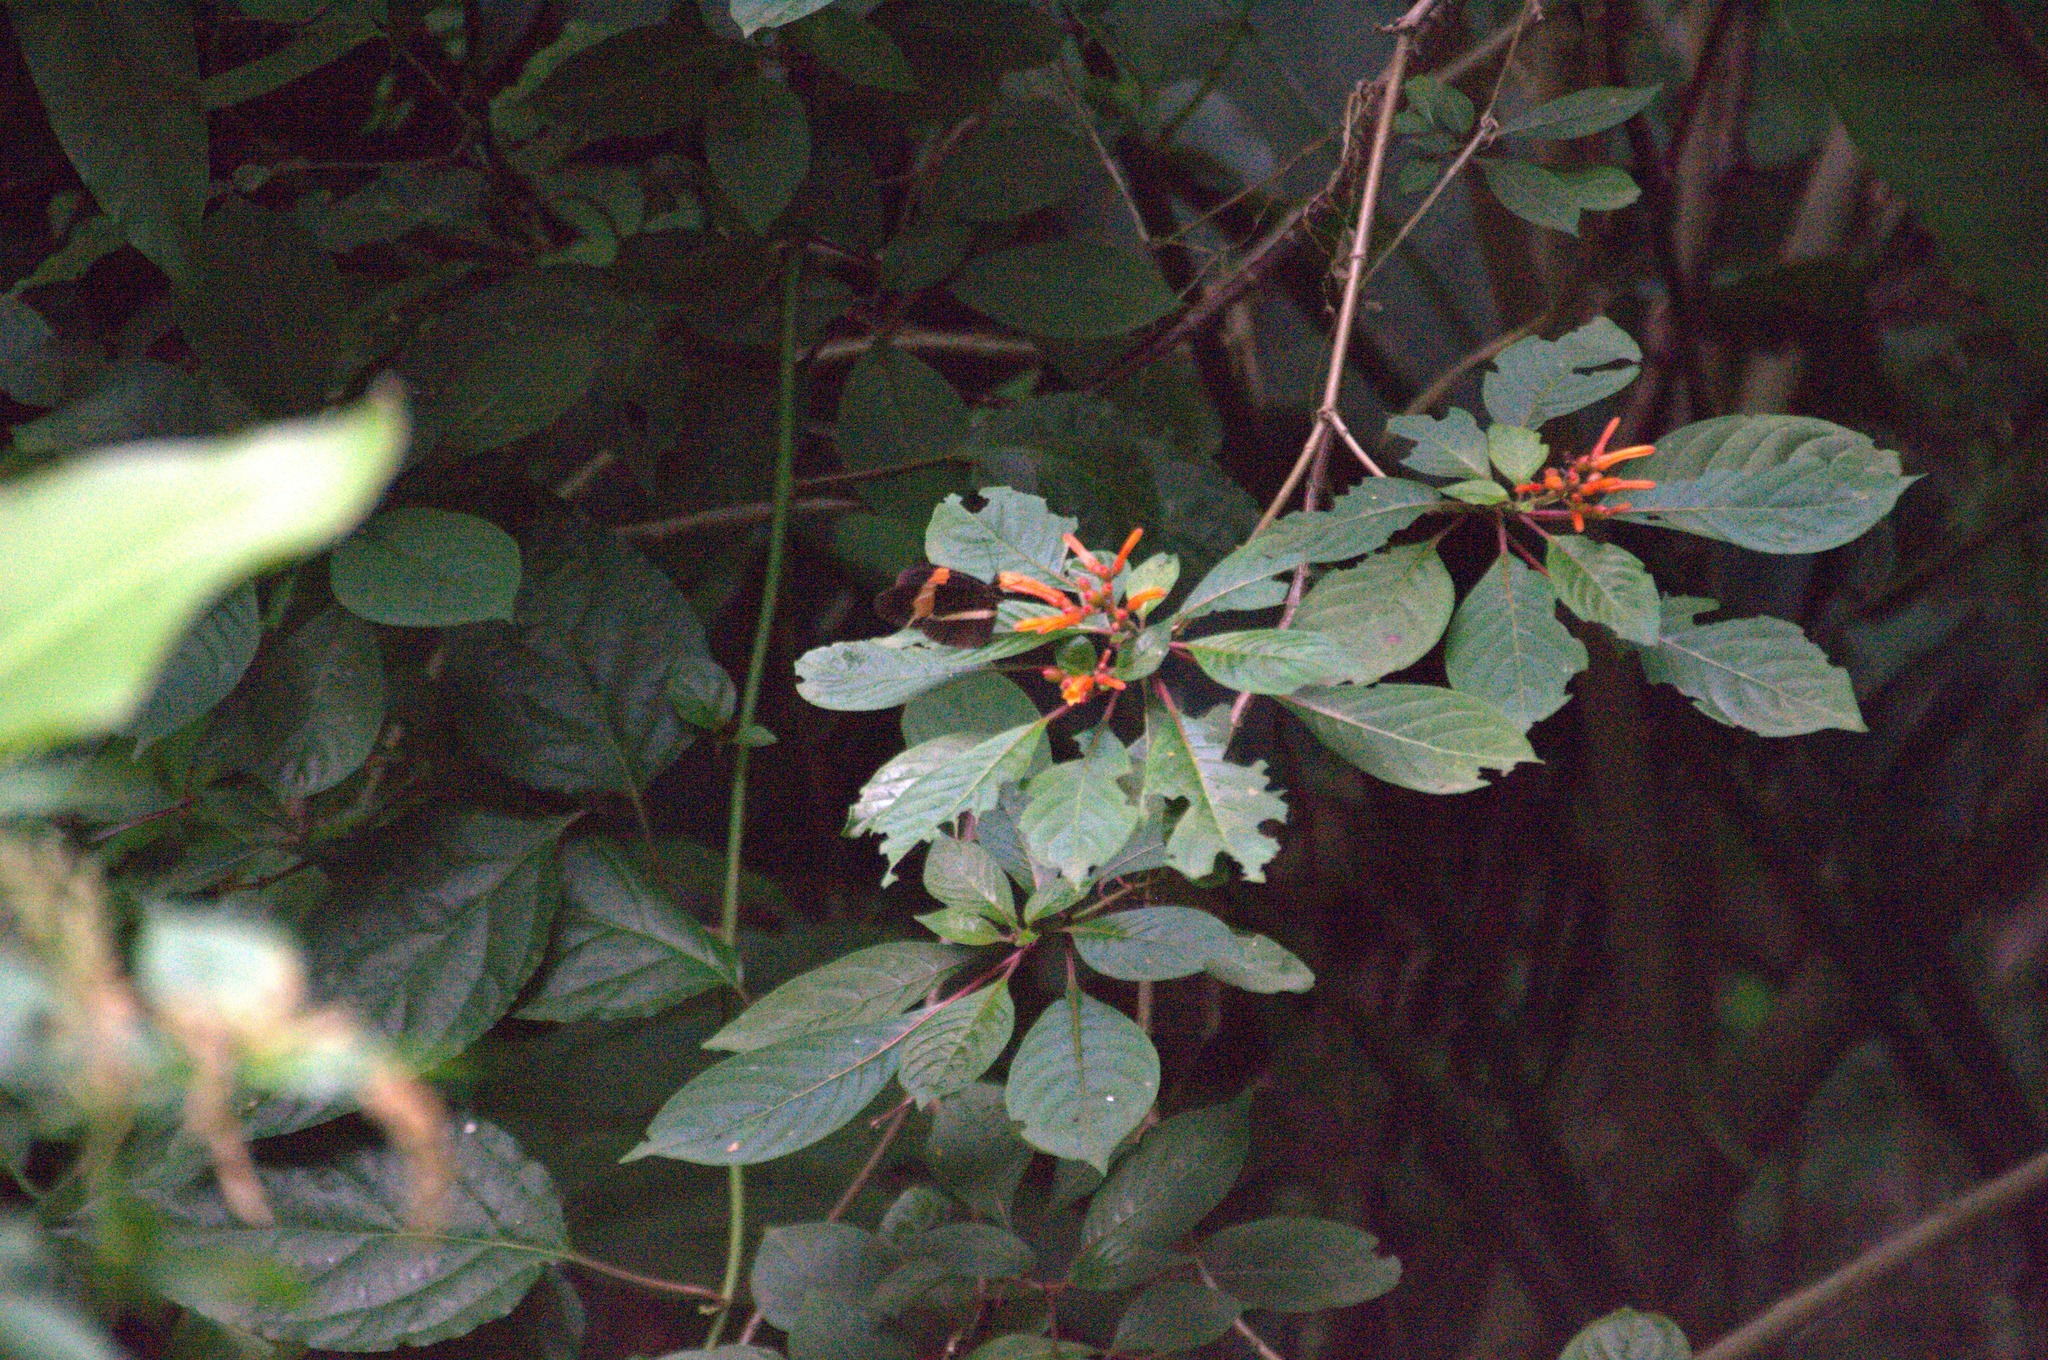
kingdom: Animalia
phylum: Arthropoda
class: Insecta
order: Lepidoptera
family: Nymphalidae
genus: Tirumala
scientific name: Tirumala petiverana
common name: Blue monarch
